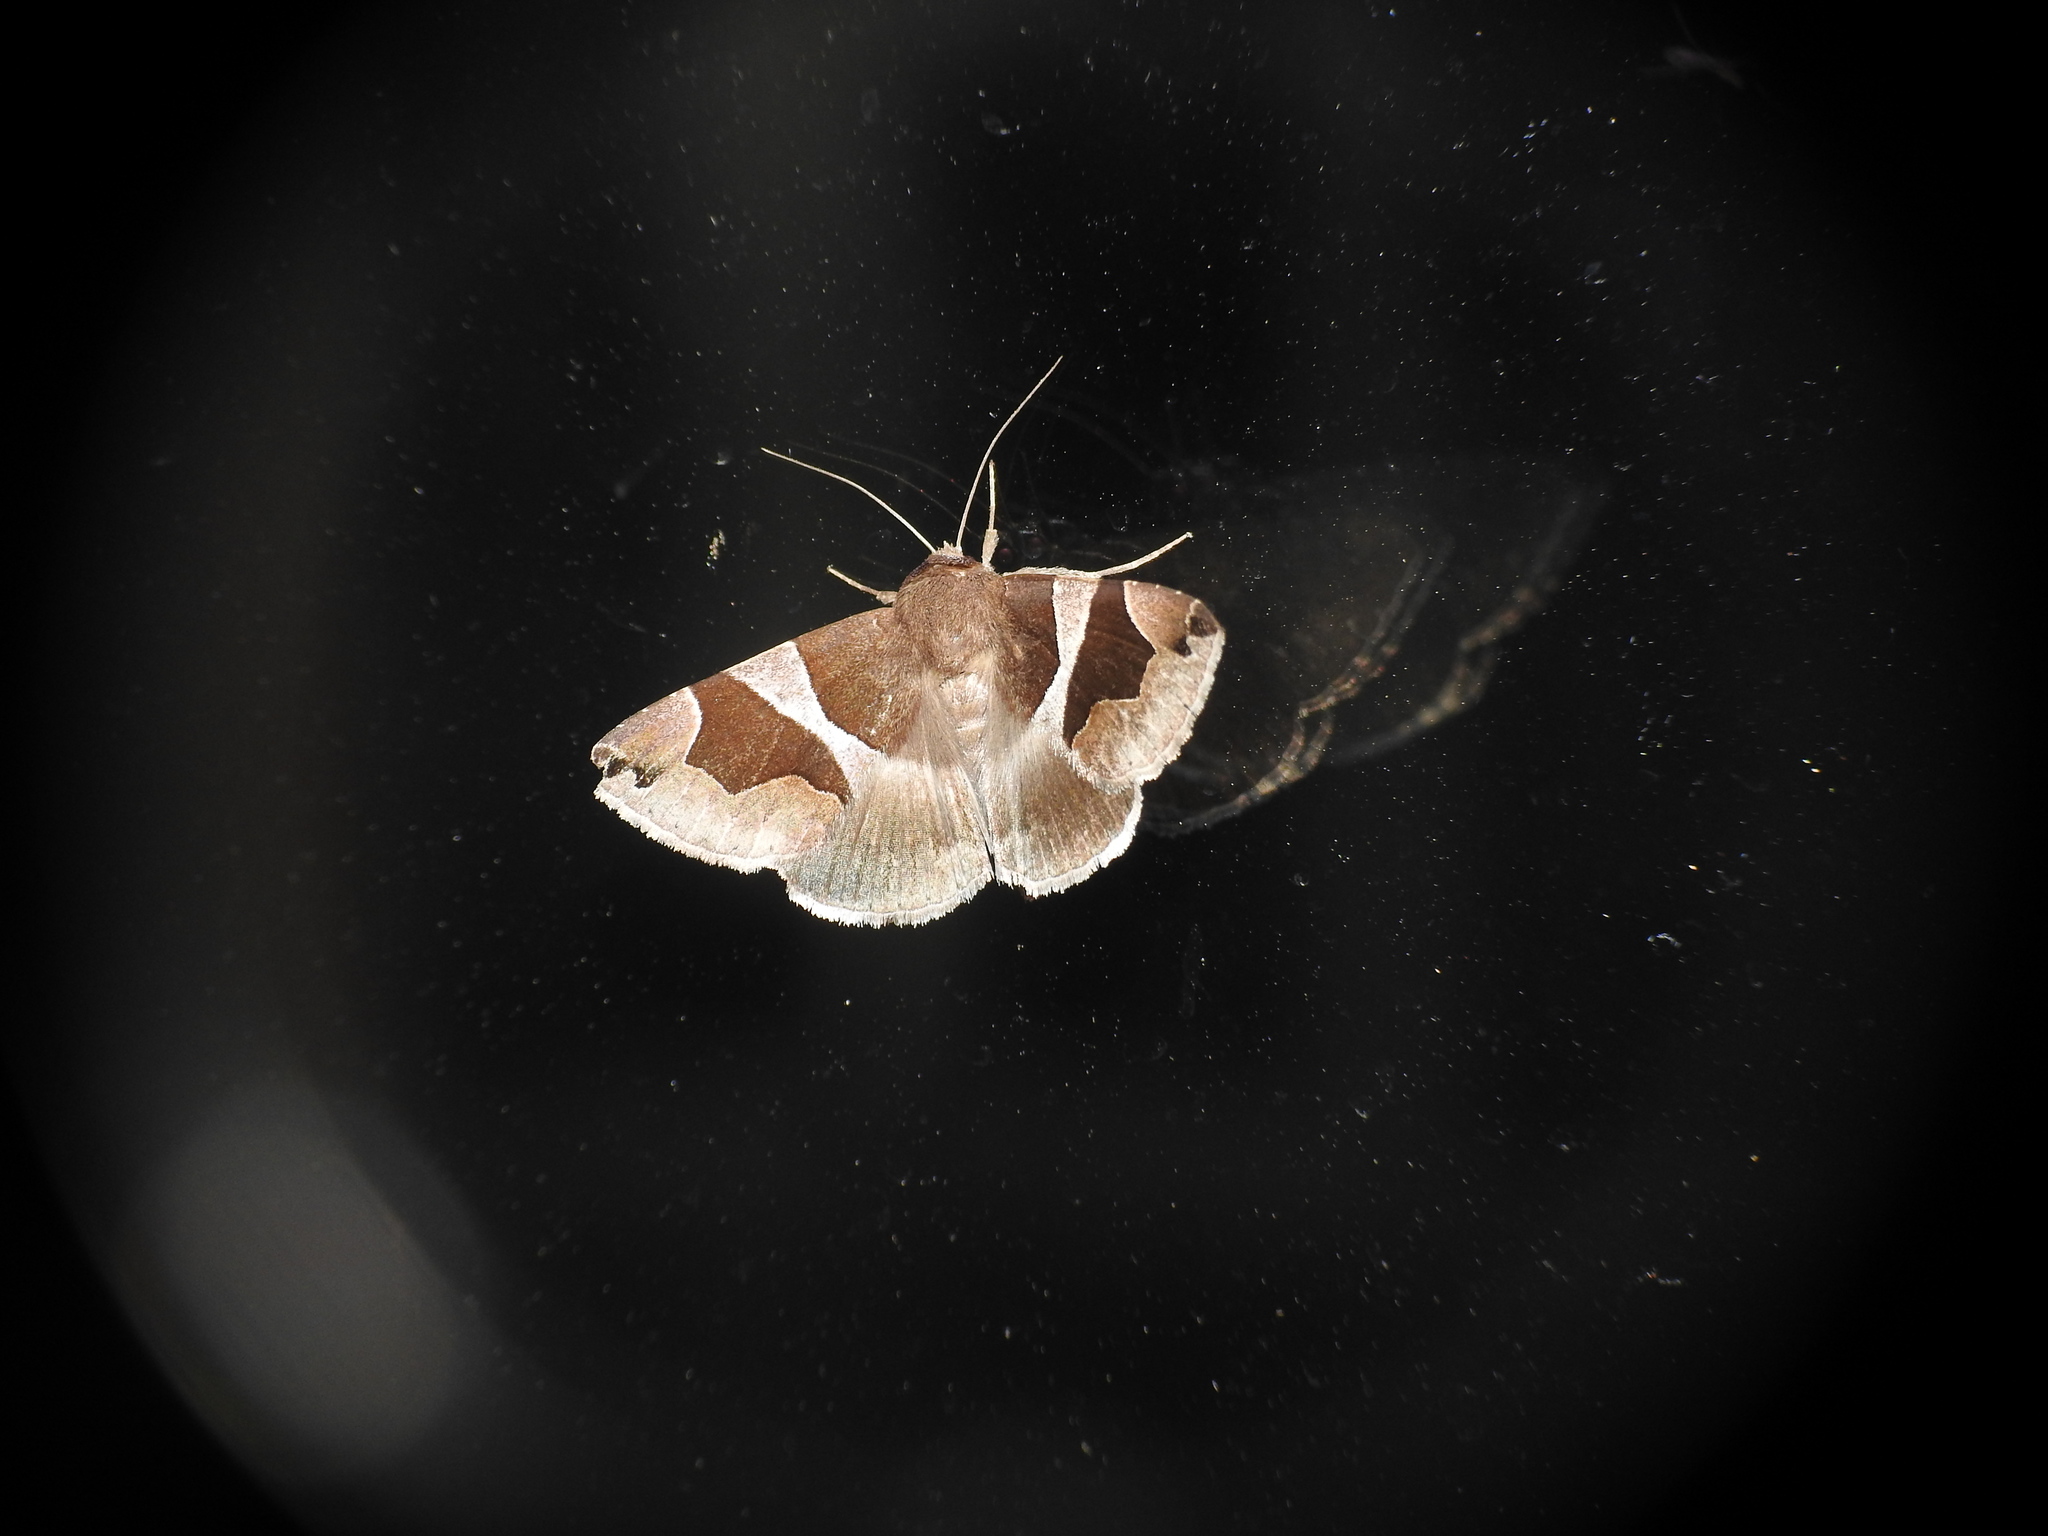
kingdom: Animalia
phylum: Arthropoda
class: Insecta
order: Lepidoptera
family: Erebidae
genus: Dysgonia
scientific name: Dysgonia algira
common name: Passenger
